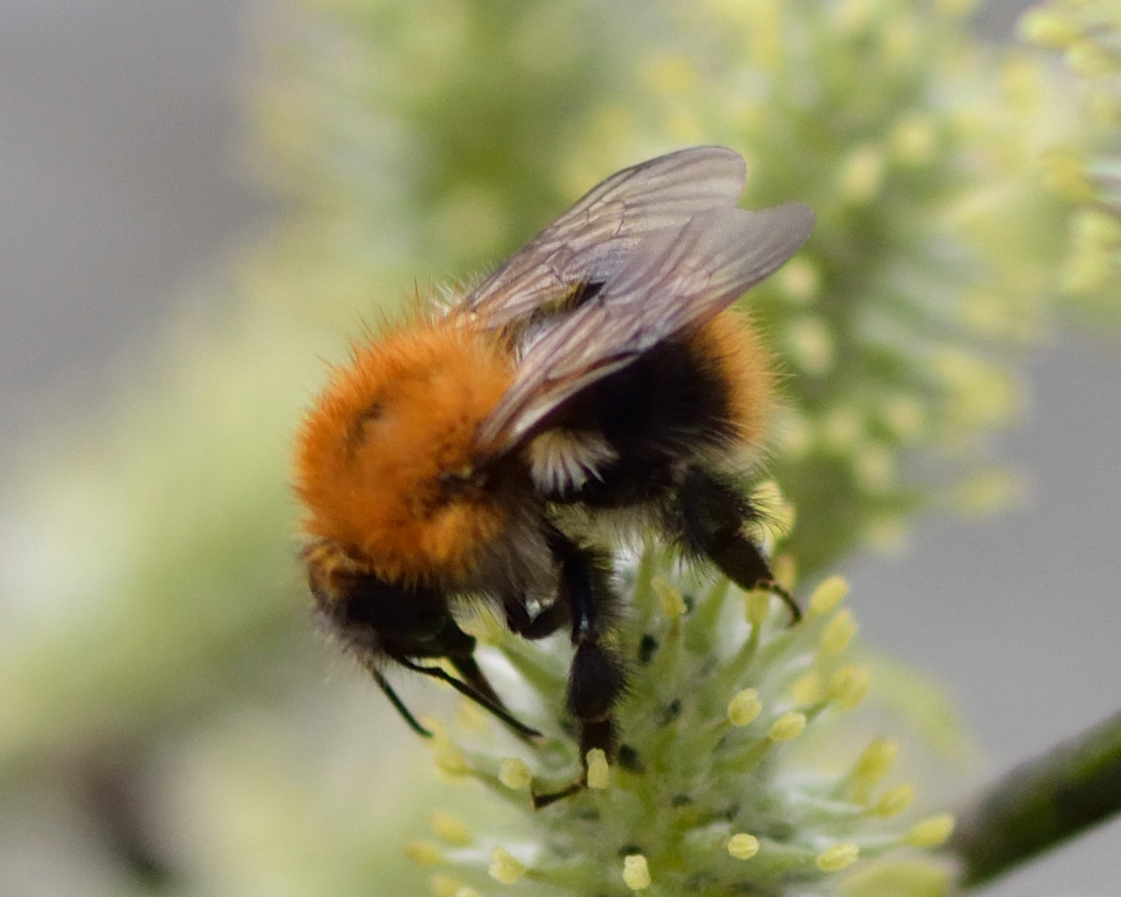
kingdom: Animalia
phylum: Arthropoda
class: Insecta
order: Hymenoptera
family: Apidae
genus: Bombus
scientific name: Bombus pascuorum
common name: Common carder bee
